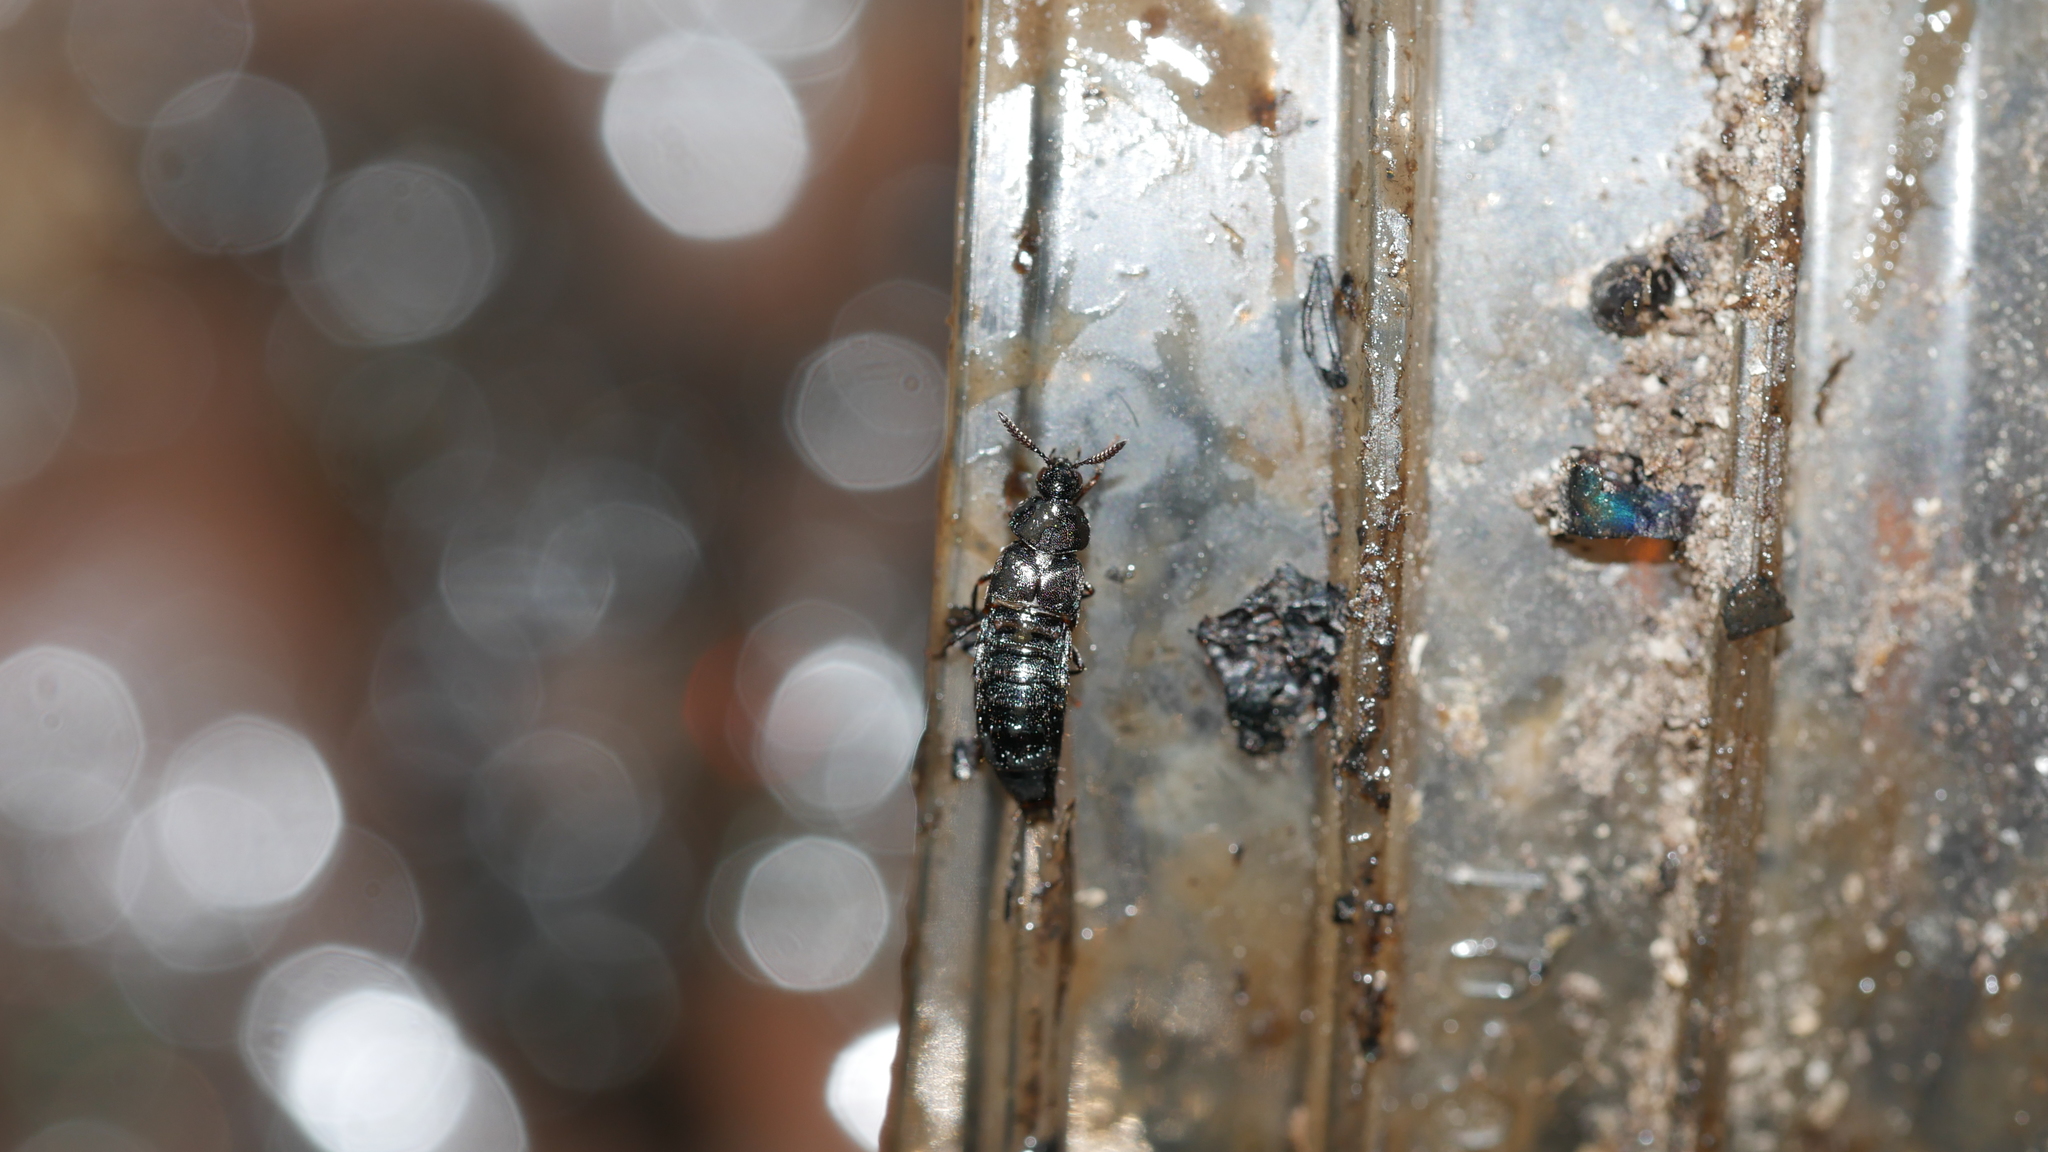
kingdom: Animalia
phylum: Arthropoda
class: Insecta
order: Coleoptera
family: Staphylinidae
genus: Aleochara
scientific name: Aleochara lata
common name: Rove beetle
